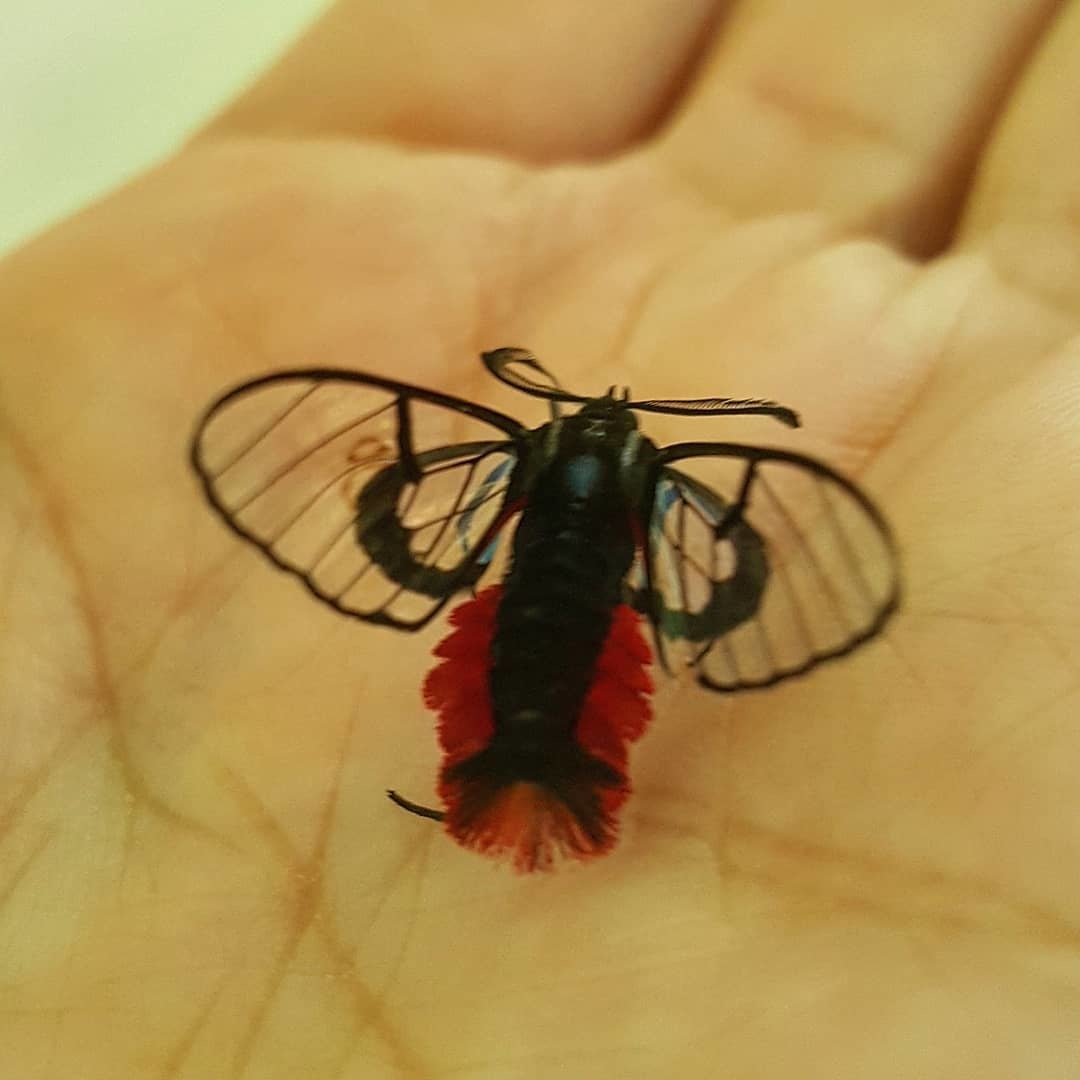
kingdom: Animalia
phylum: Arthropoda
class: Insecta
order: Lepidoptera
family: Erebidae
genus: Dinia
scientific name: Dinia eagrus
